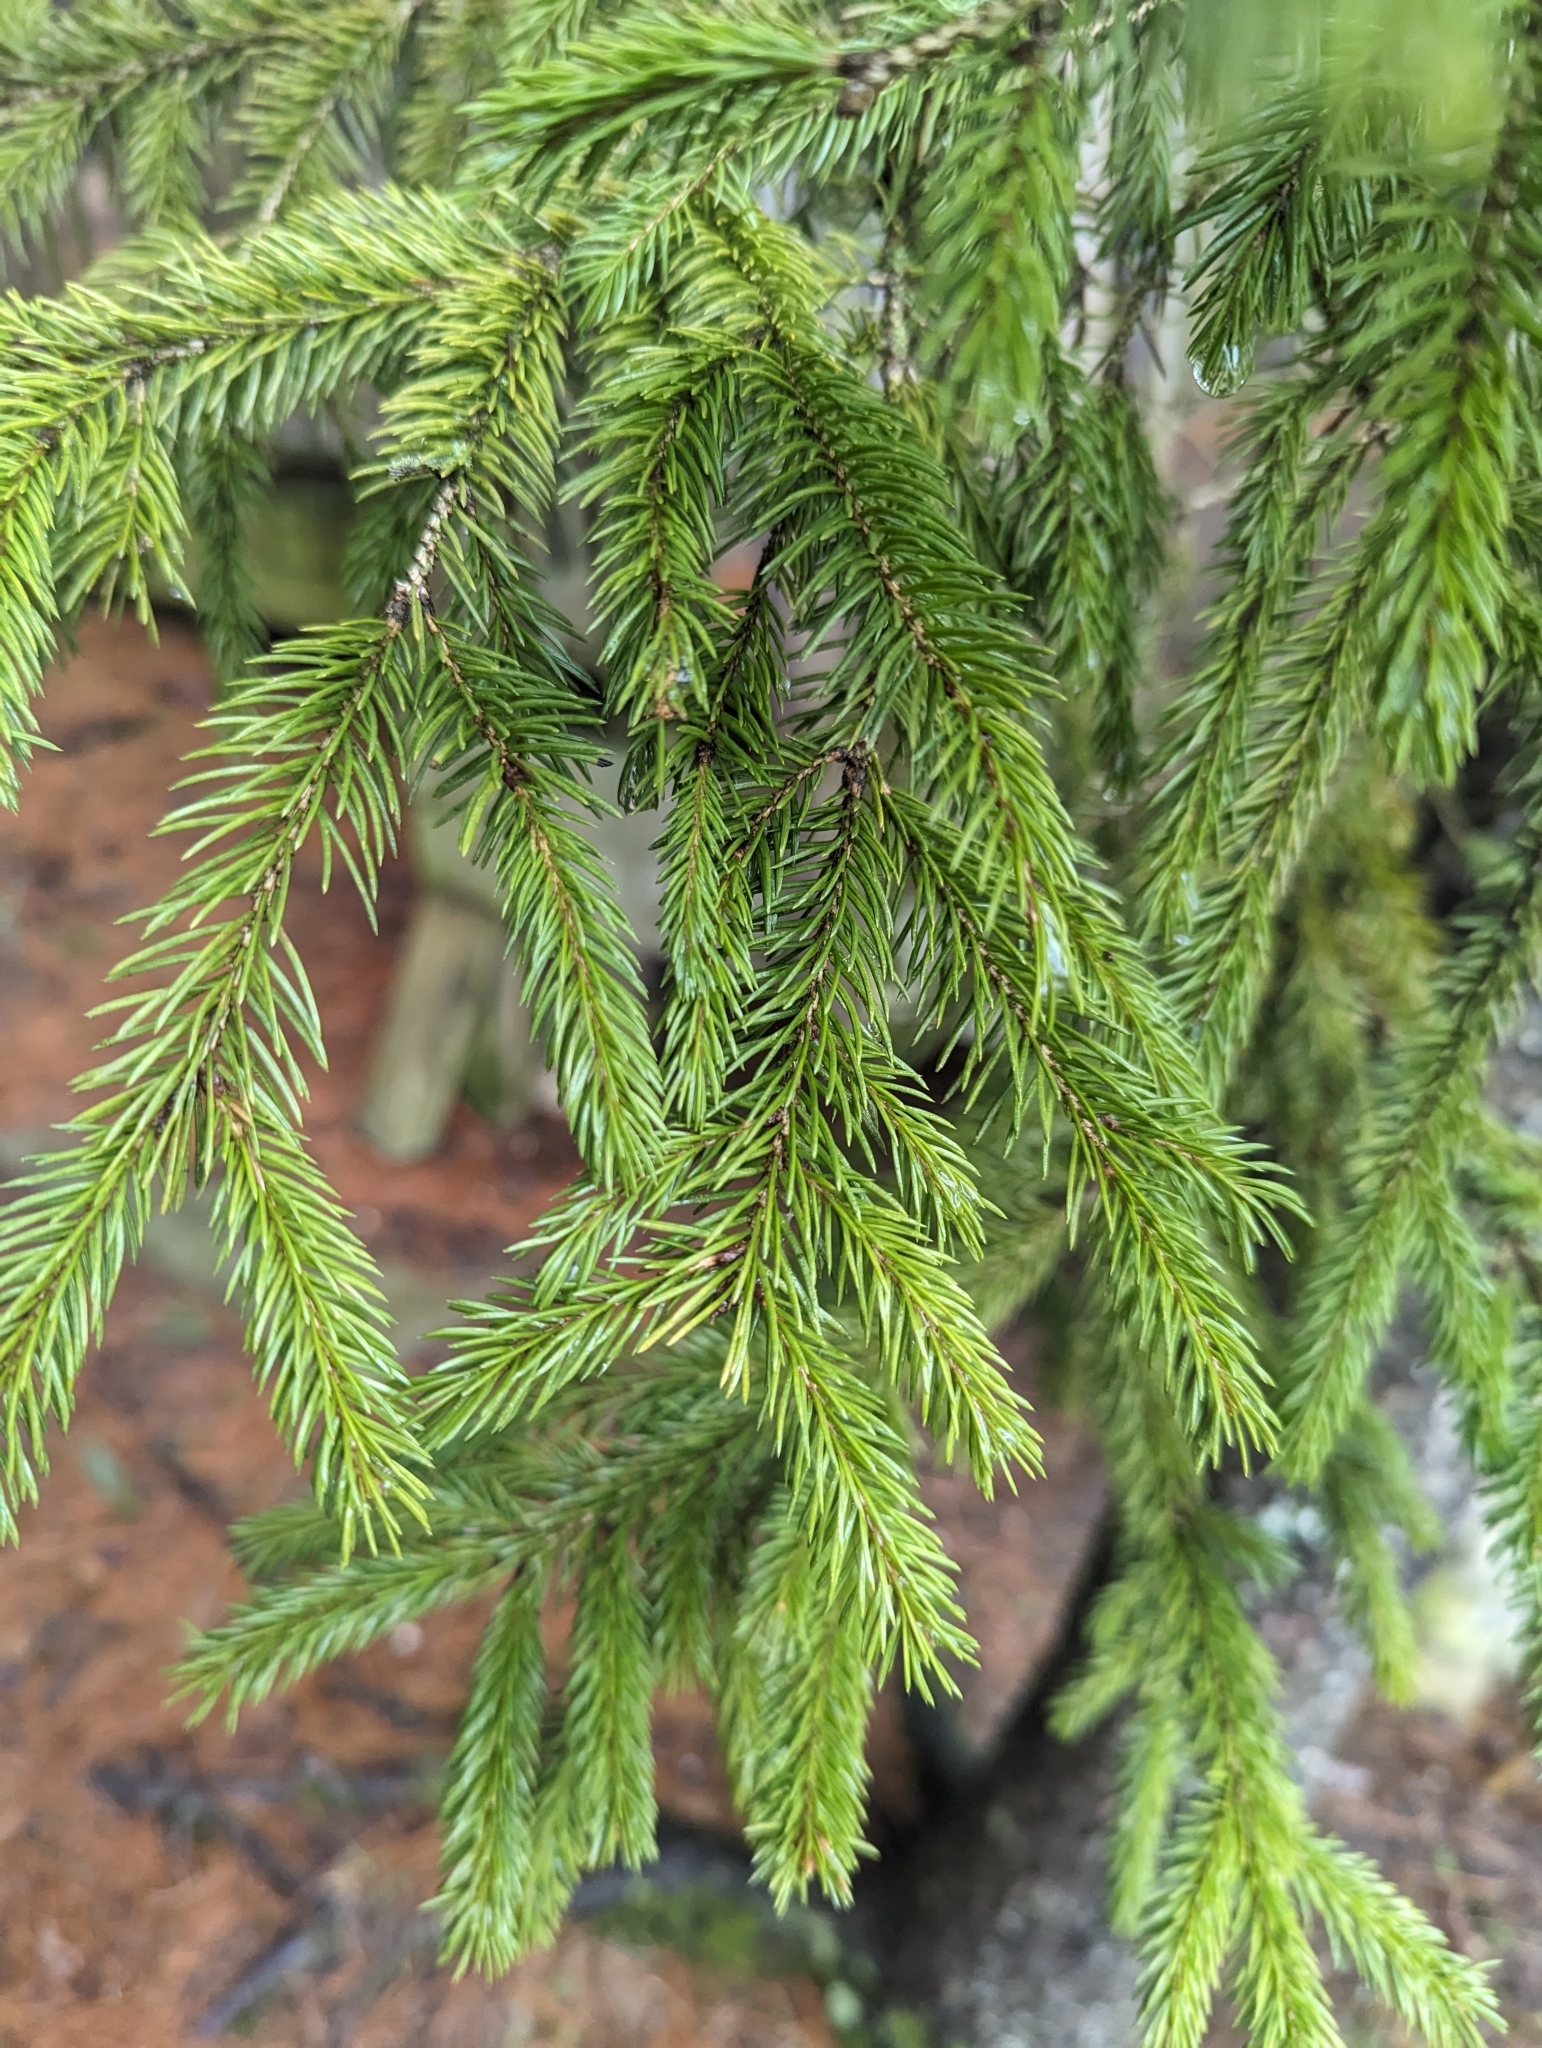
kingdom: Plantae
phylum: Tracheophyta
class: Pinopsida
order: Pinales
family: Pinaceae
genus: Picea
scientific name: Picea glauca
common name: White spruce
